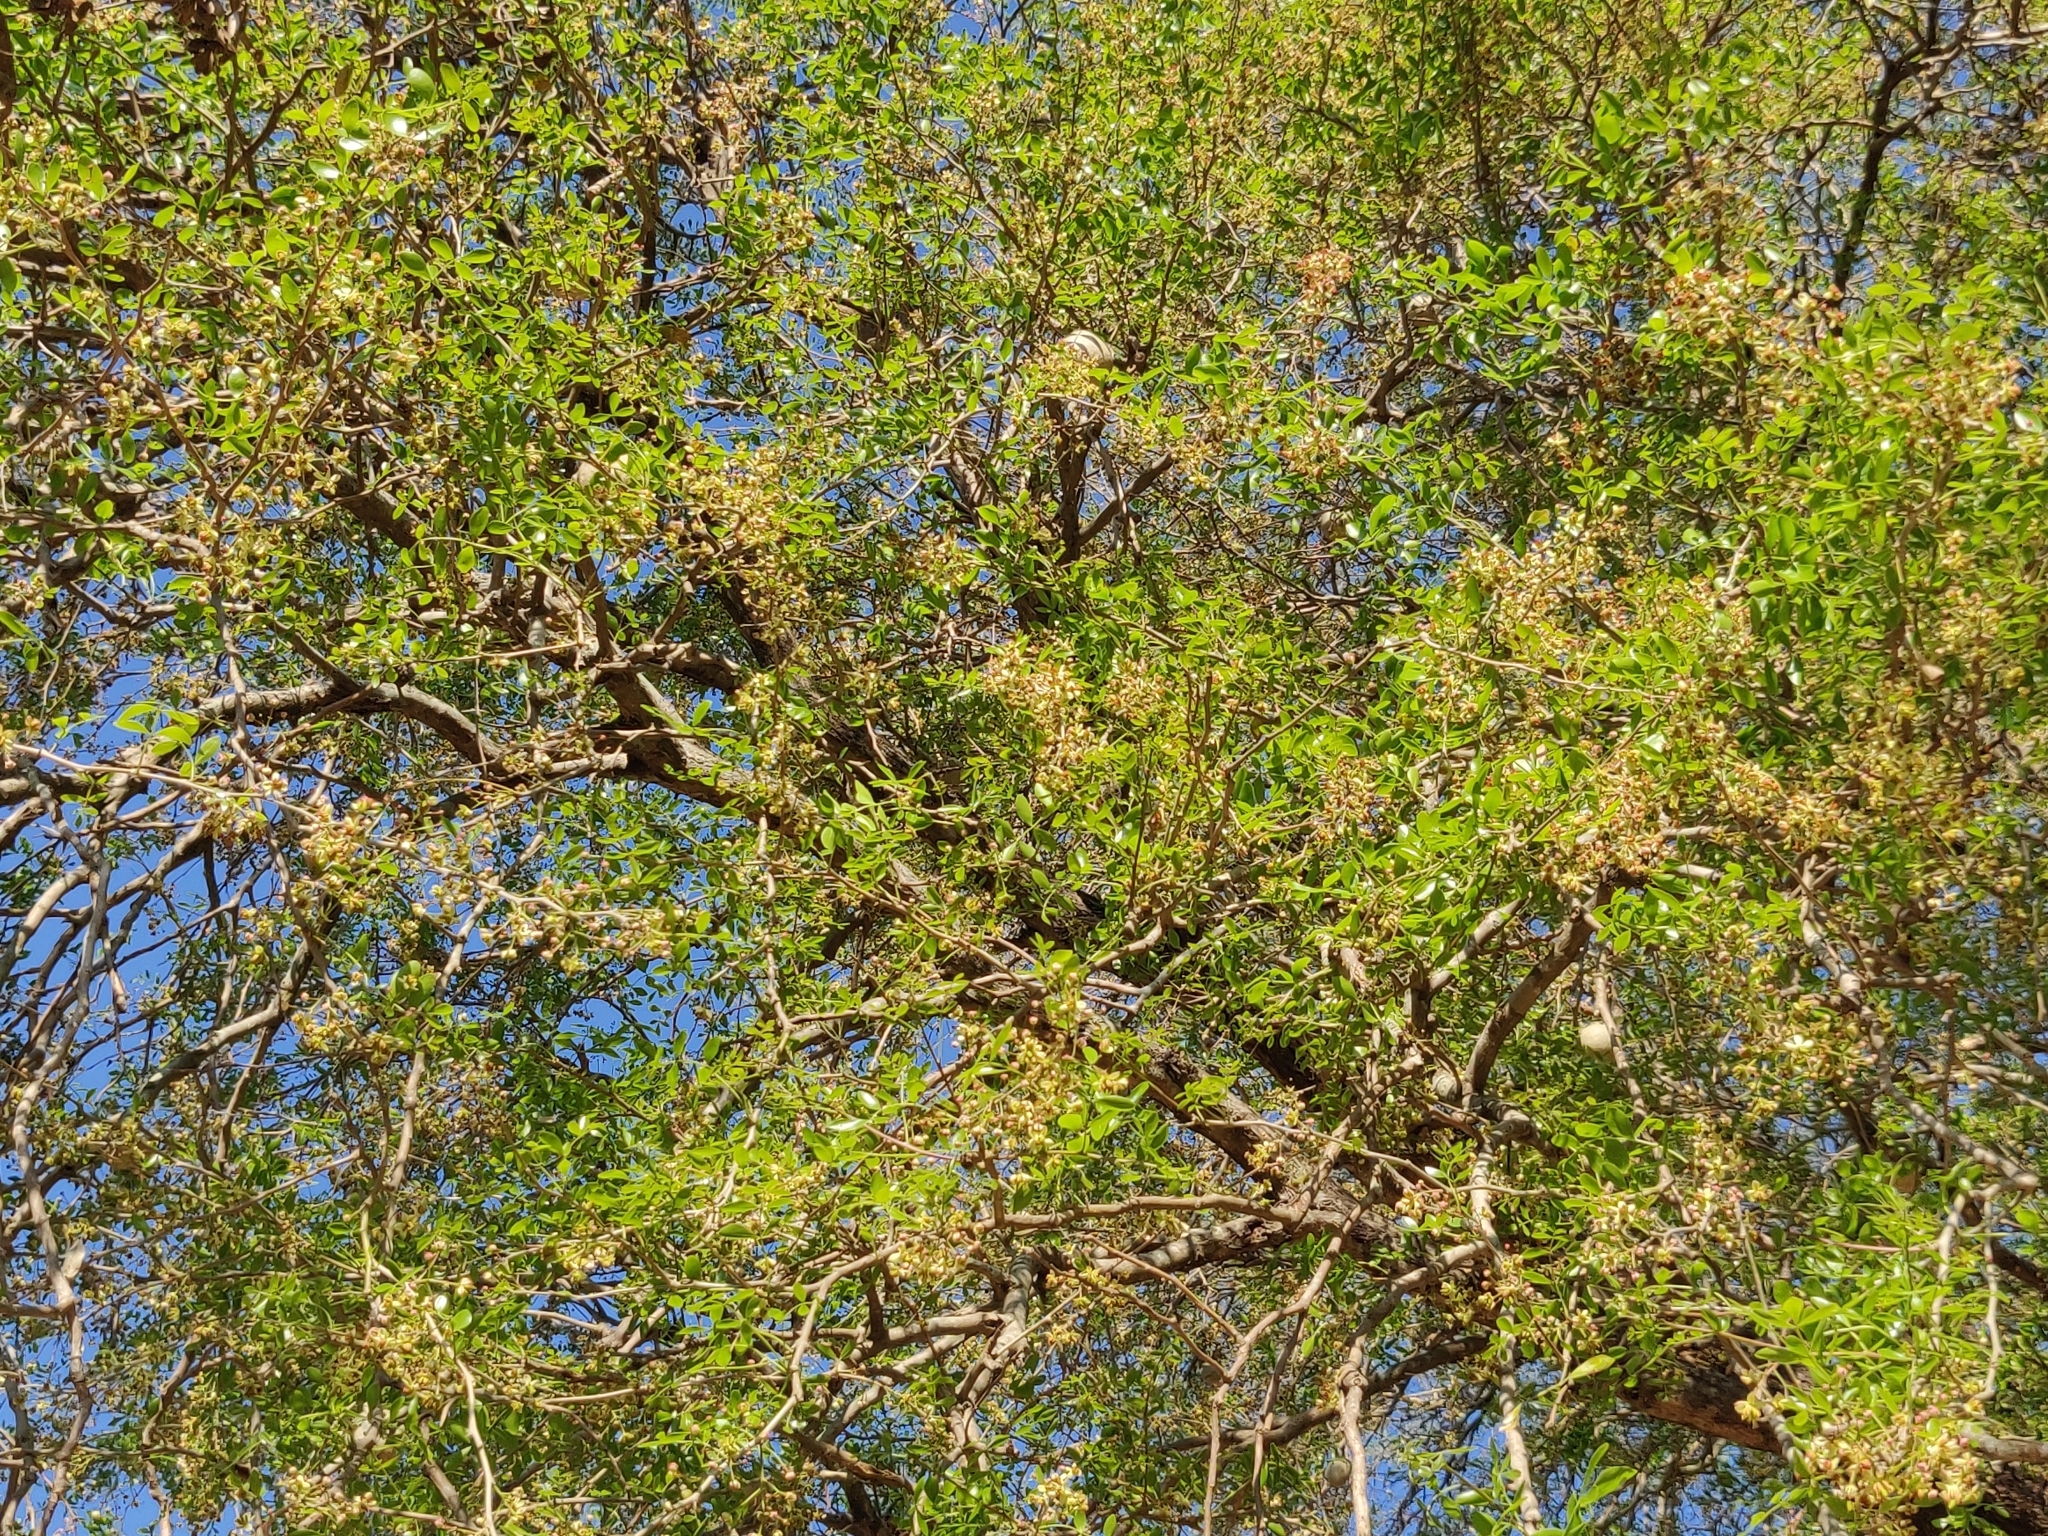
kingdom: Plantae
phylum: Tracheophyta
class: Magnoliopsida
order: Sapindales
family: Rutaceae
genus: Limonia
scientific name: Limonia acidissima
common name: Elephant apple
